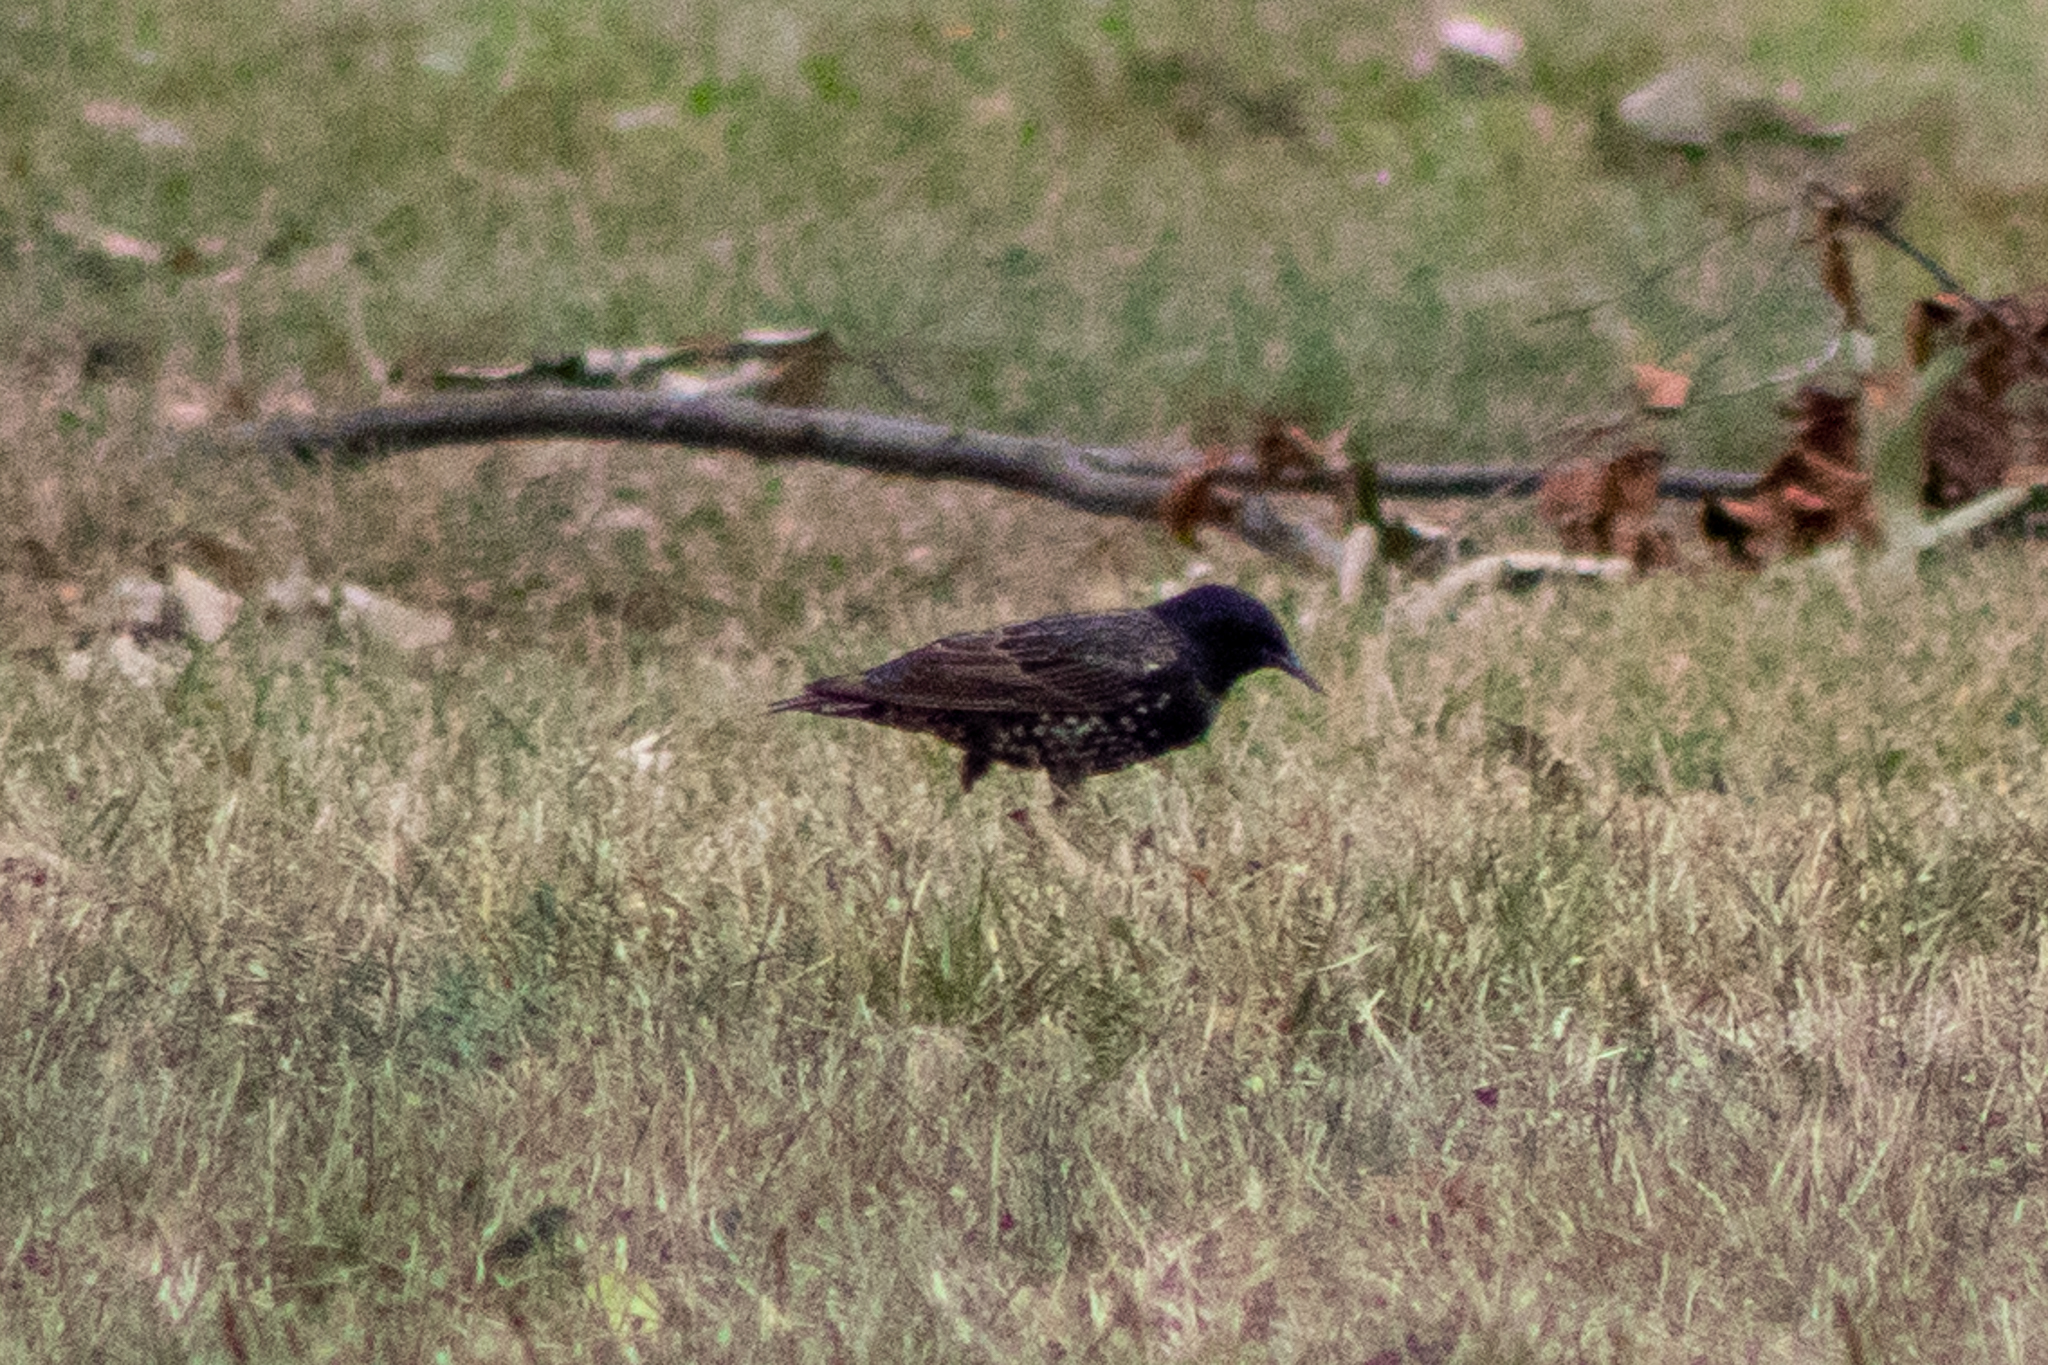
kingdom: Animalia
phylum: Chordata
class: Aves
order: Passeriformes
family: Sturnidae
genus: Sturnus
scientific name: Sturnus vulgaris
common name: Common starling
